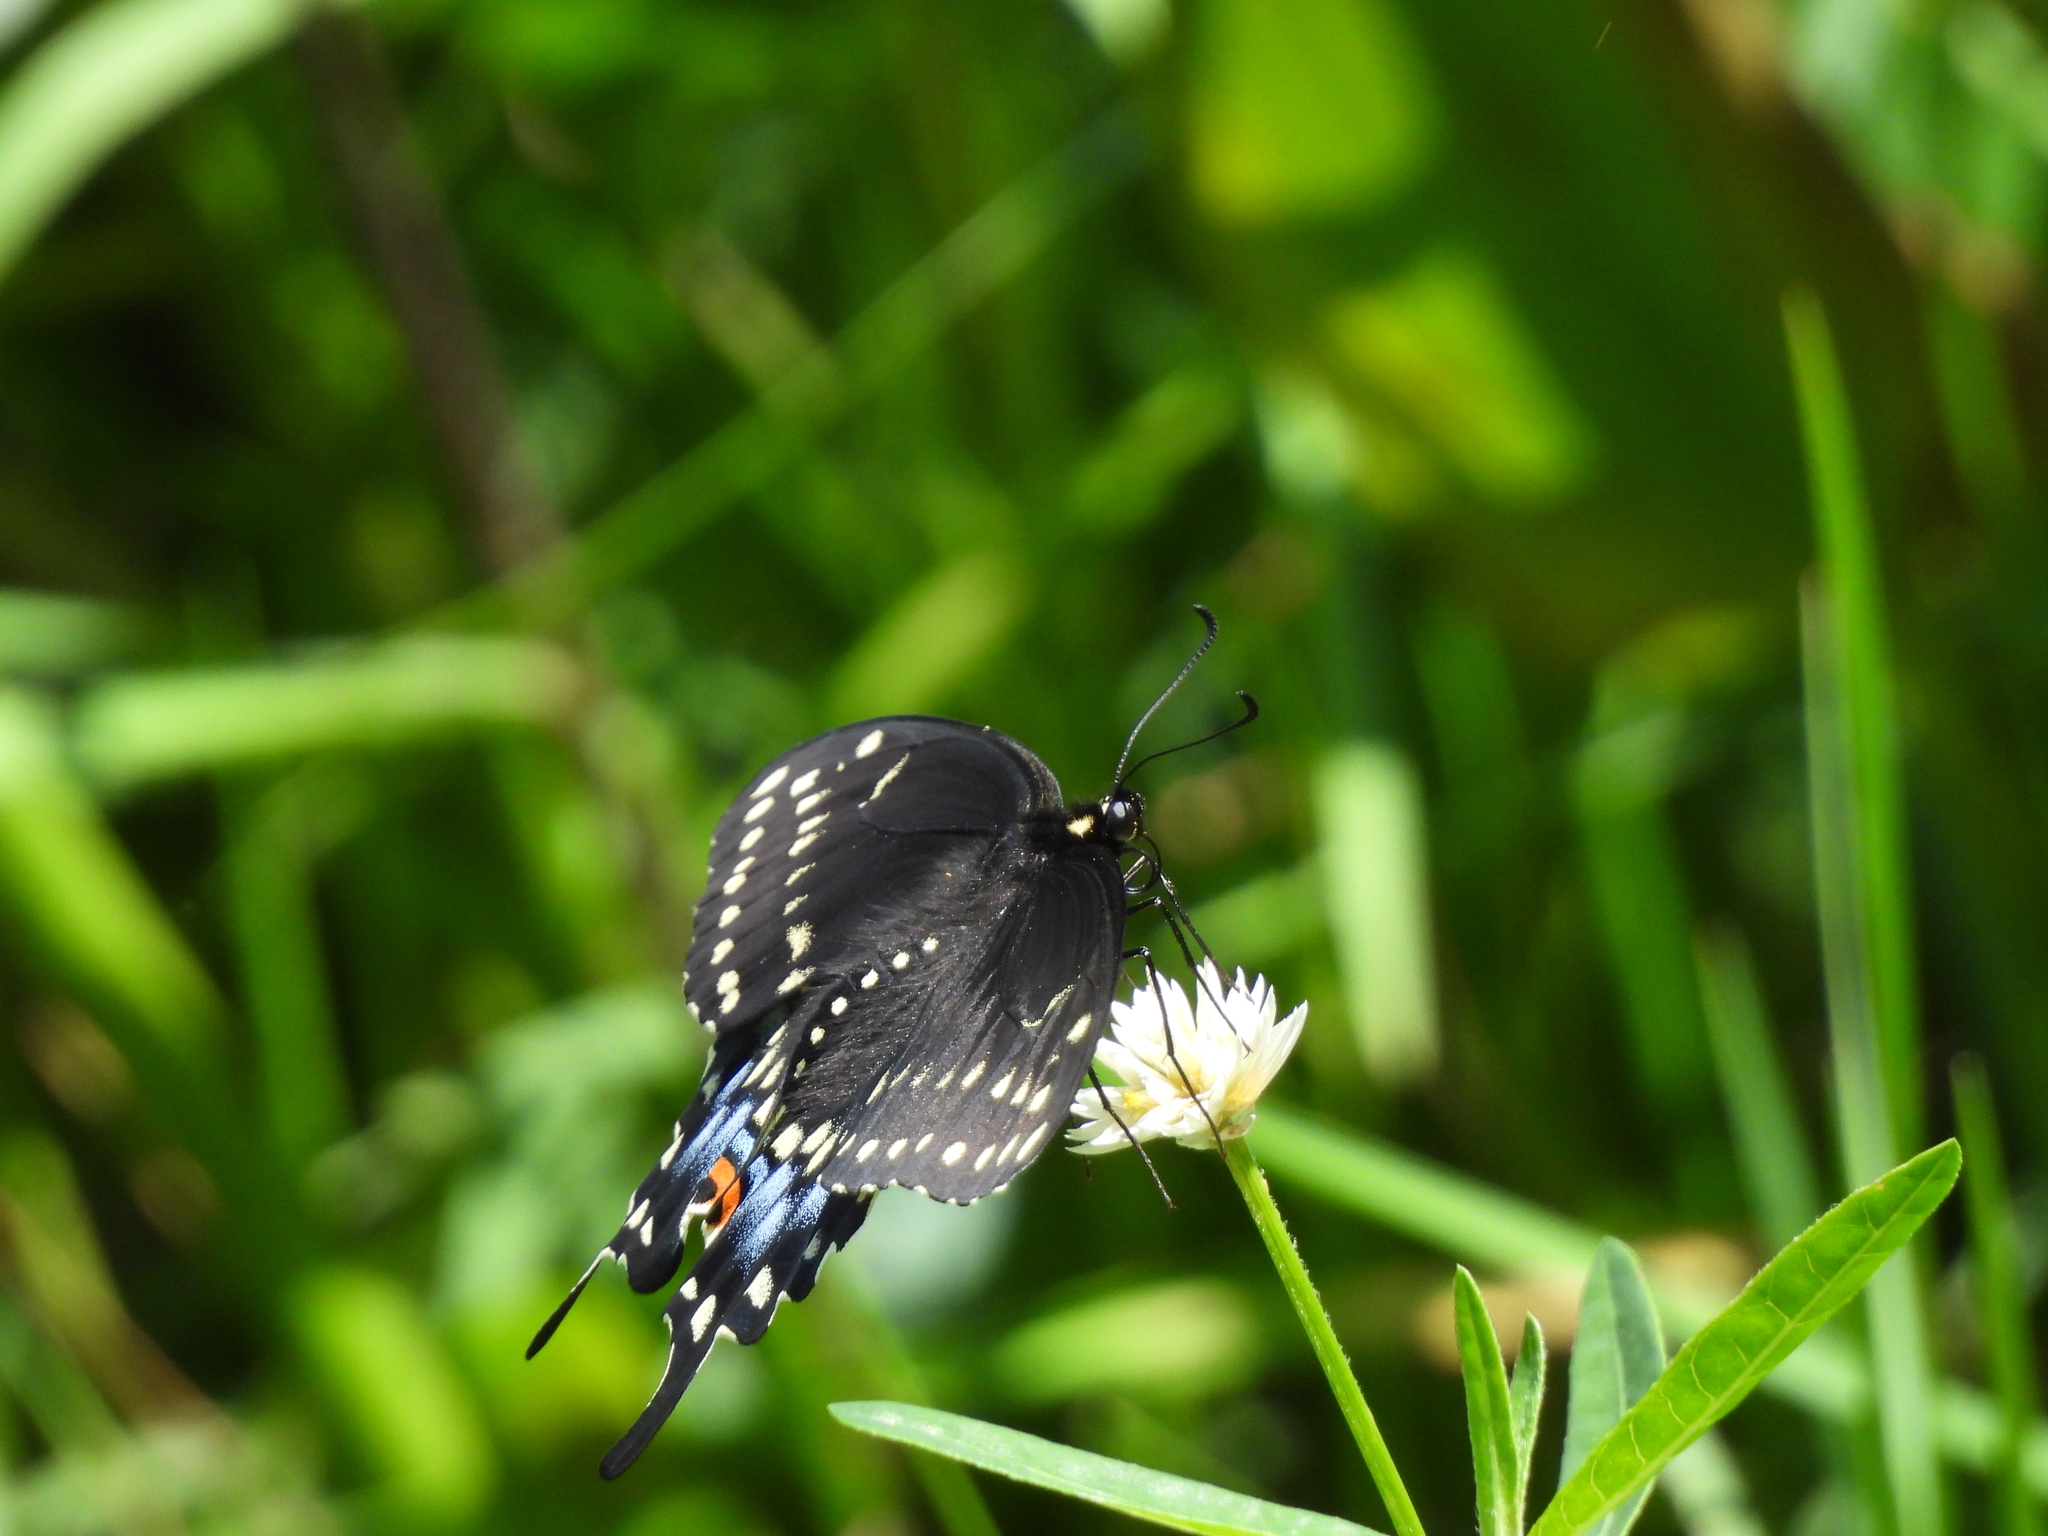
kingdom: Animalia
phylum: Arthropoda
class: Insecta
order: Lepidoptera
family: Papilionidae
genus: Papilio
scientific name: Papilio polyxenes
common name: Black swallowtail
